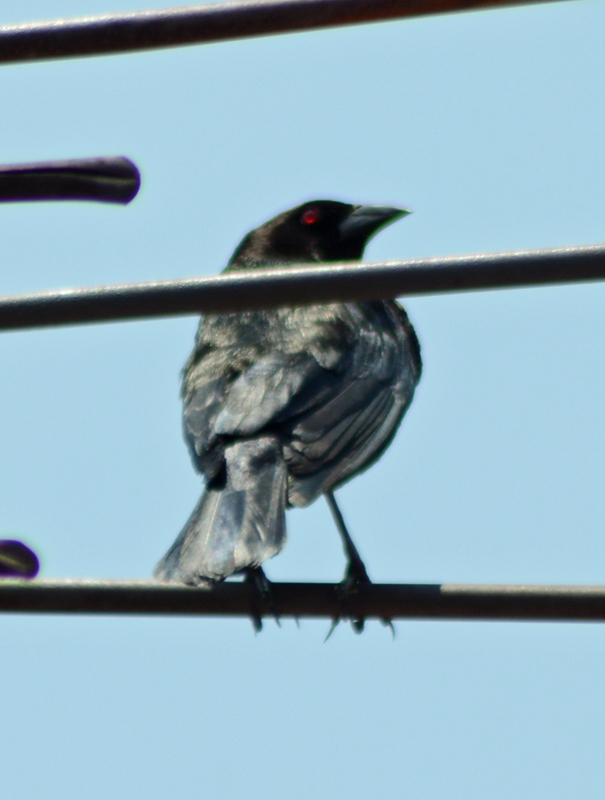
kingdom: Animalia
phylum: Chordata
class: Aves
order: Passeriformes
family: Icteridae
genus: Molothrus
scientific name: Molothrus aeneus
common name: Bronzed cowbird
